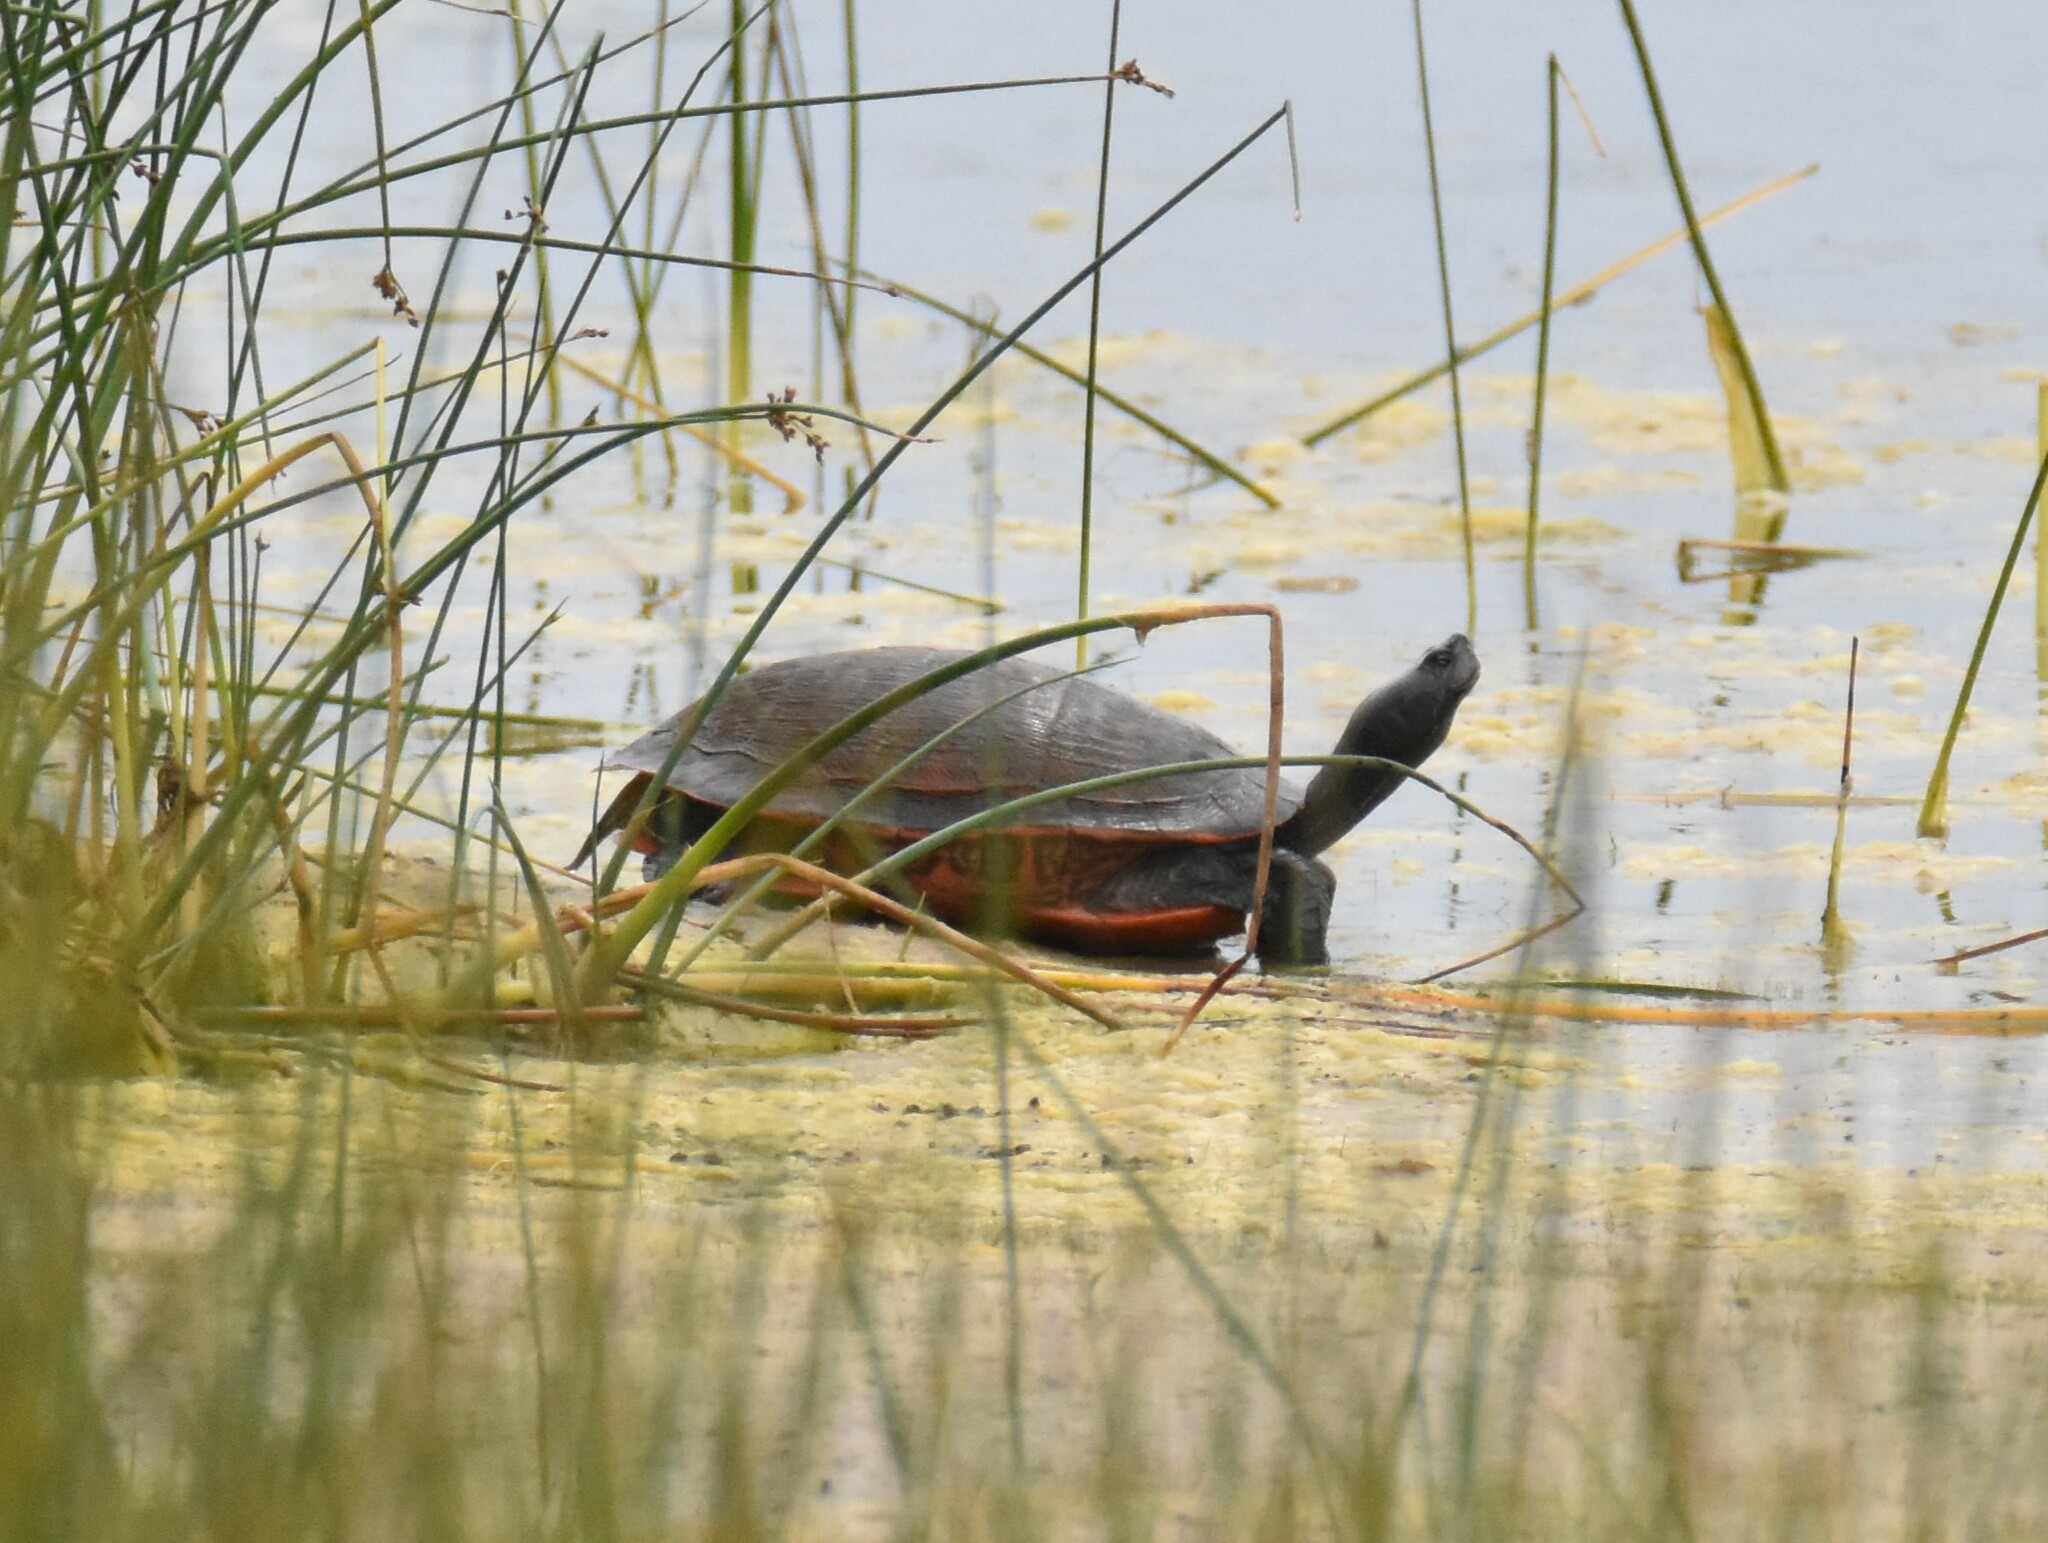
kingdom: Animalia
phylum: Chordata
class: Testudines
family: Emydidae
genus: Pseudemys
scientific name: Pseudemys rubriventris
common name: American red-bellied turtle
